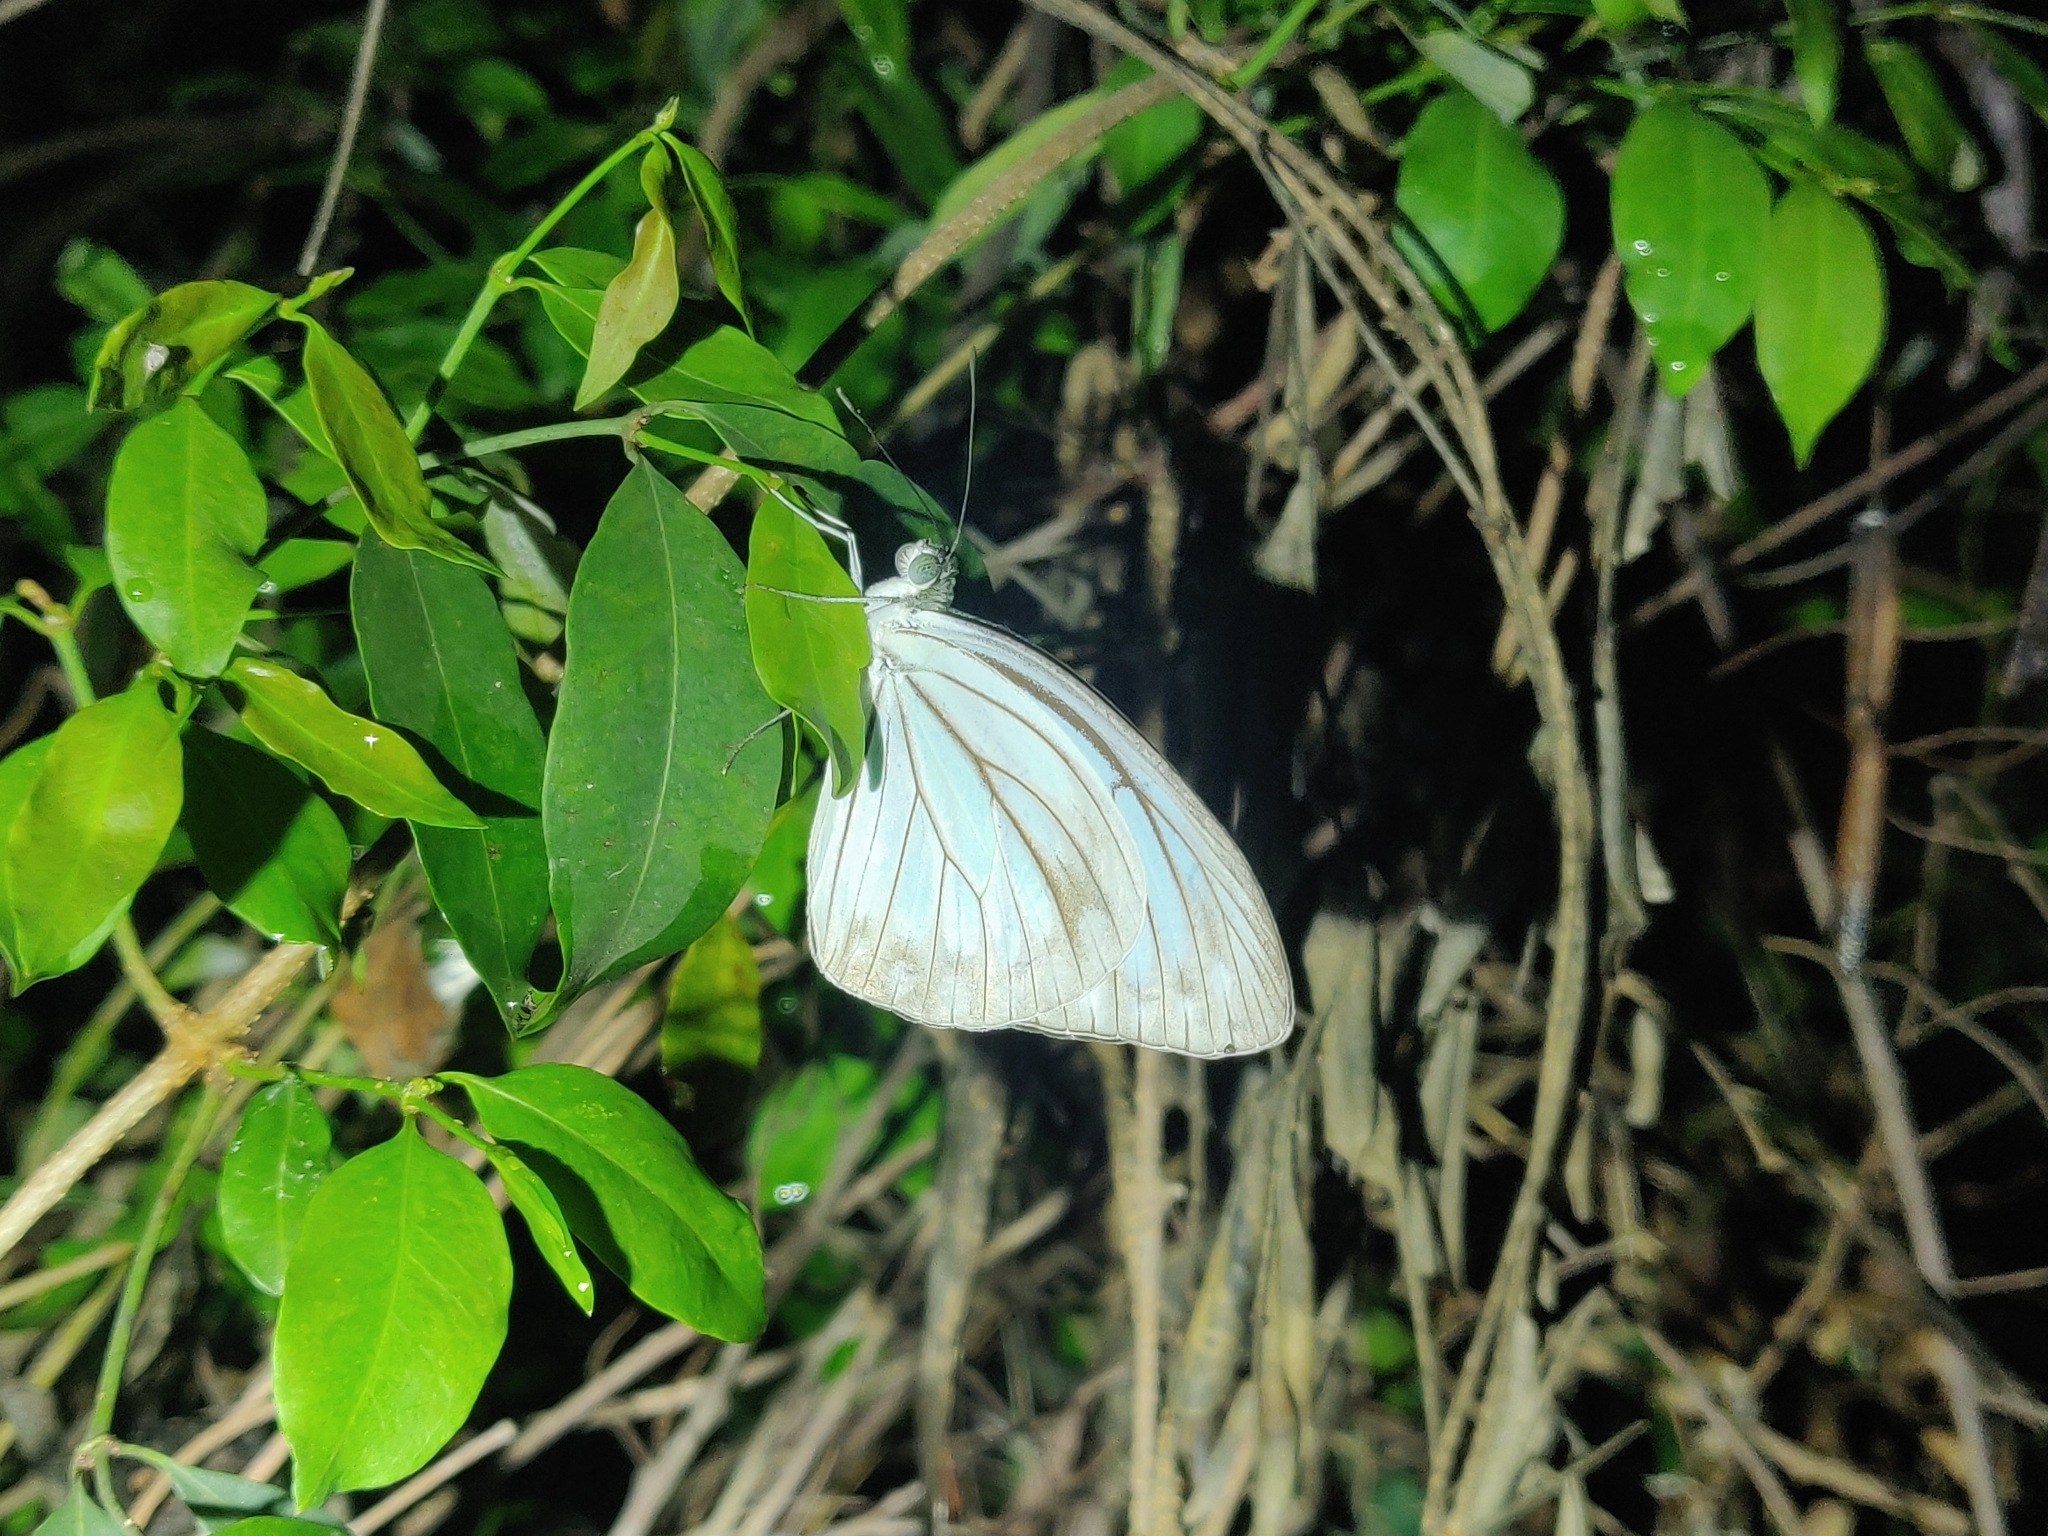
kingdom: Animalia
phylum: Arthropoda
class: Insecta
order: Lepidoptera
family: Pieridae
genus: Pareronia
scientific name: Pareronia hippia
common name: Indian wanderer
